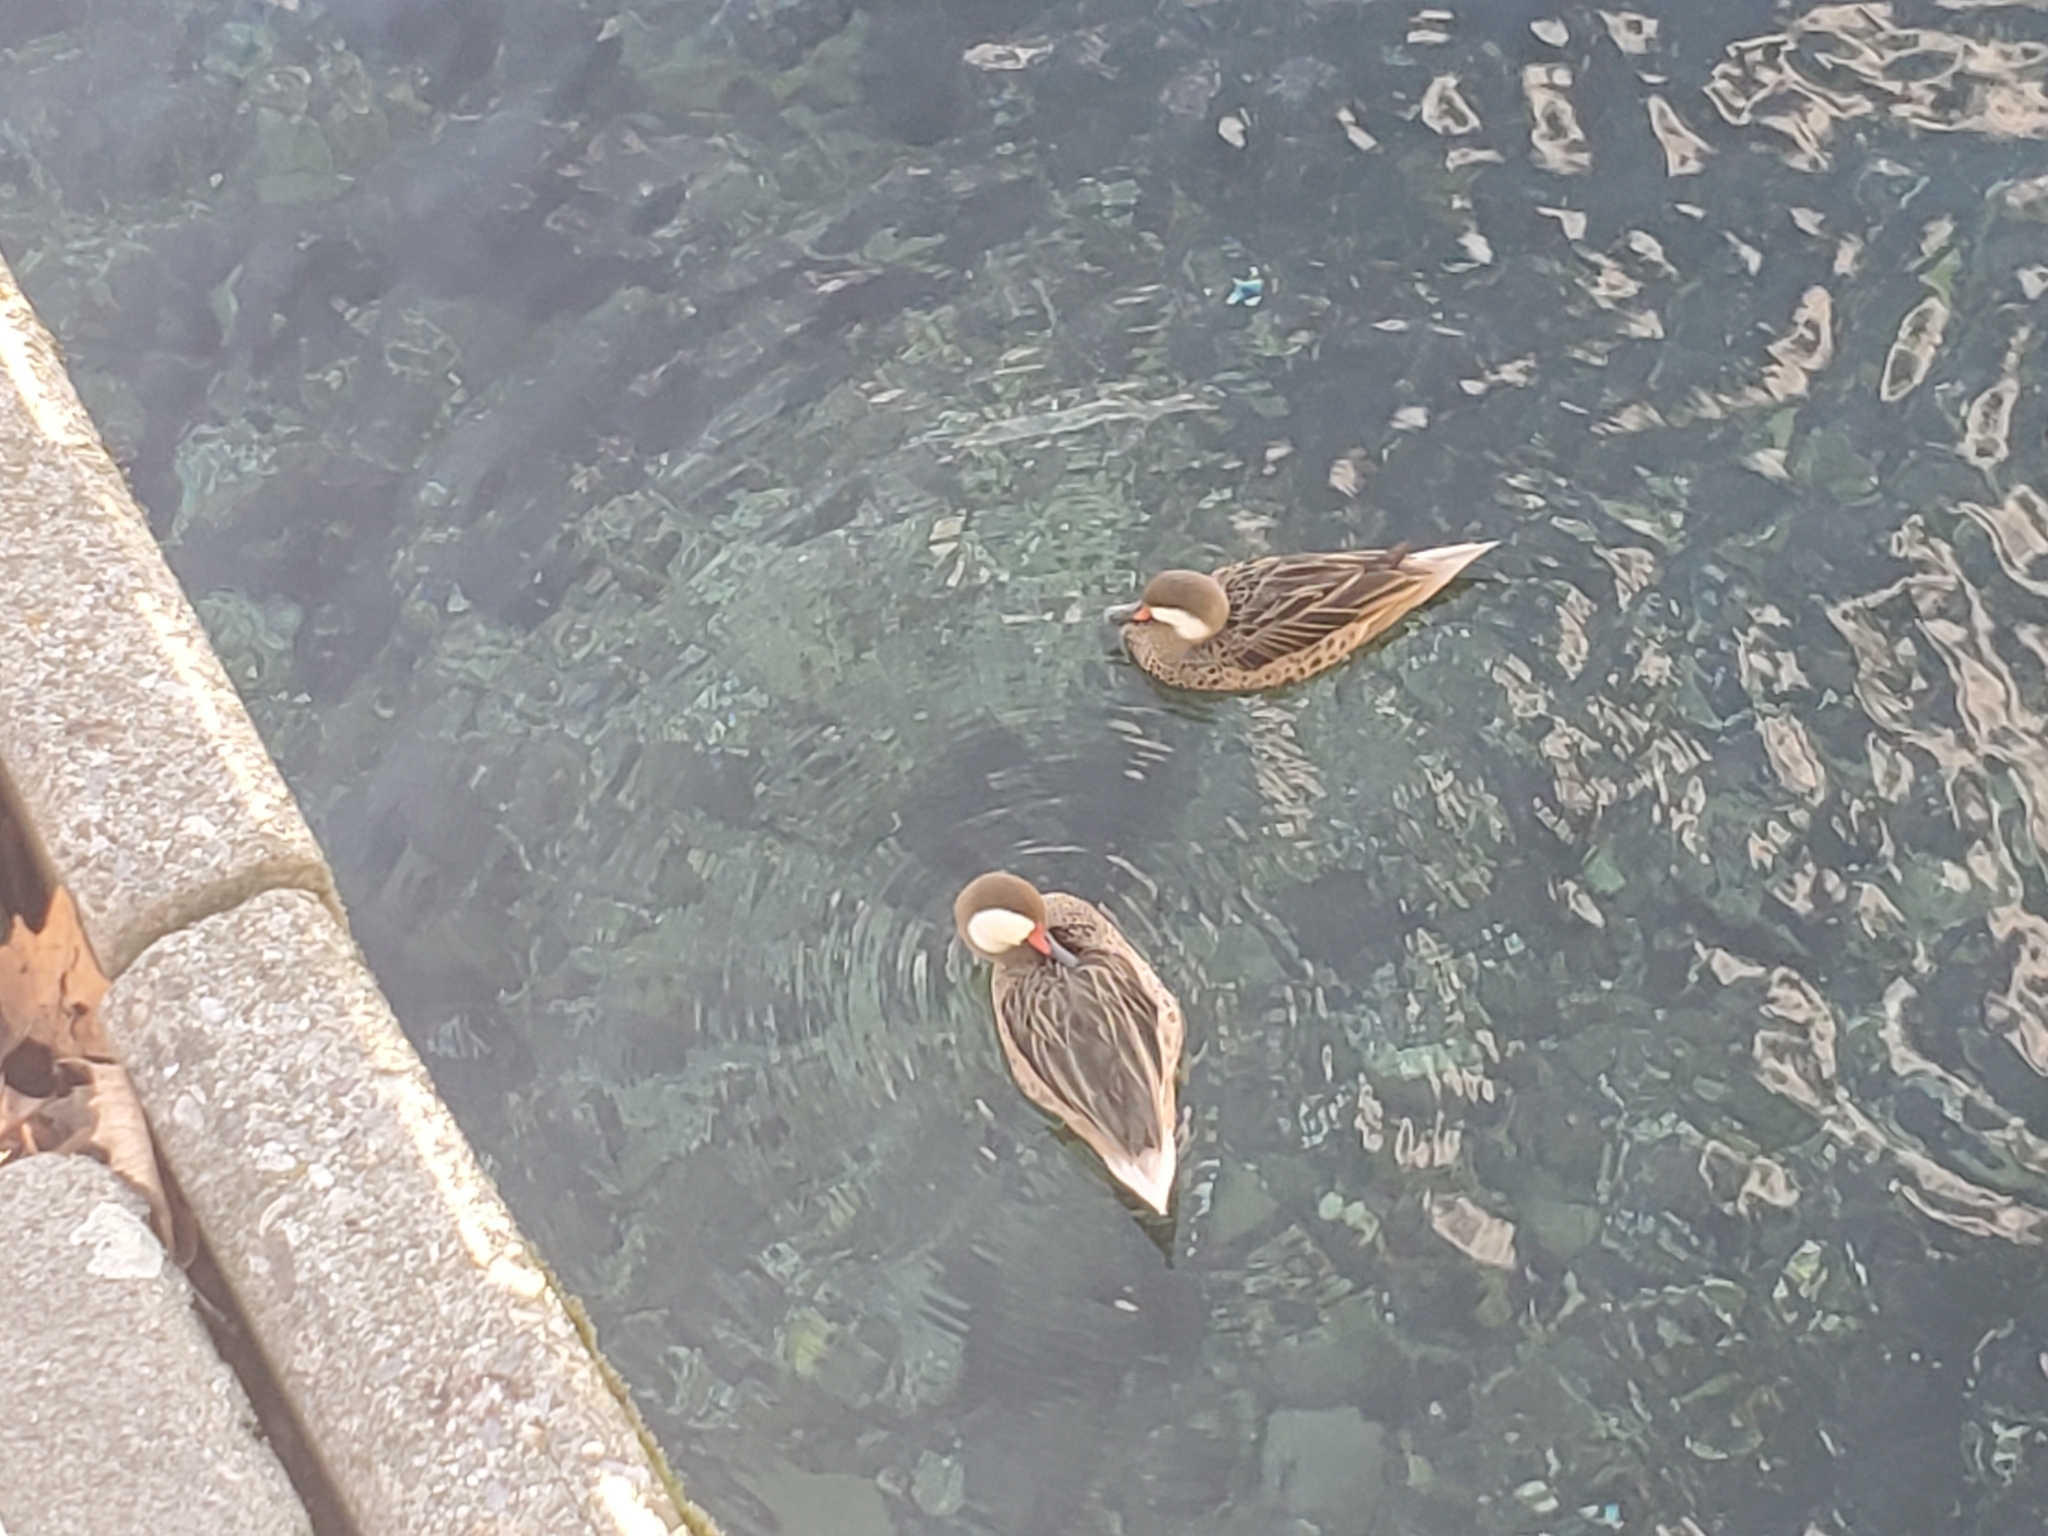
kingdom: Animalia
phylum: Chordata
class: Aves
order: Anseriformes
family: Anatidae
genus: Anas
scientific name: Anas bahamensis
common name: White-cheeked pintail
